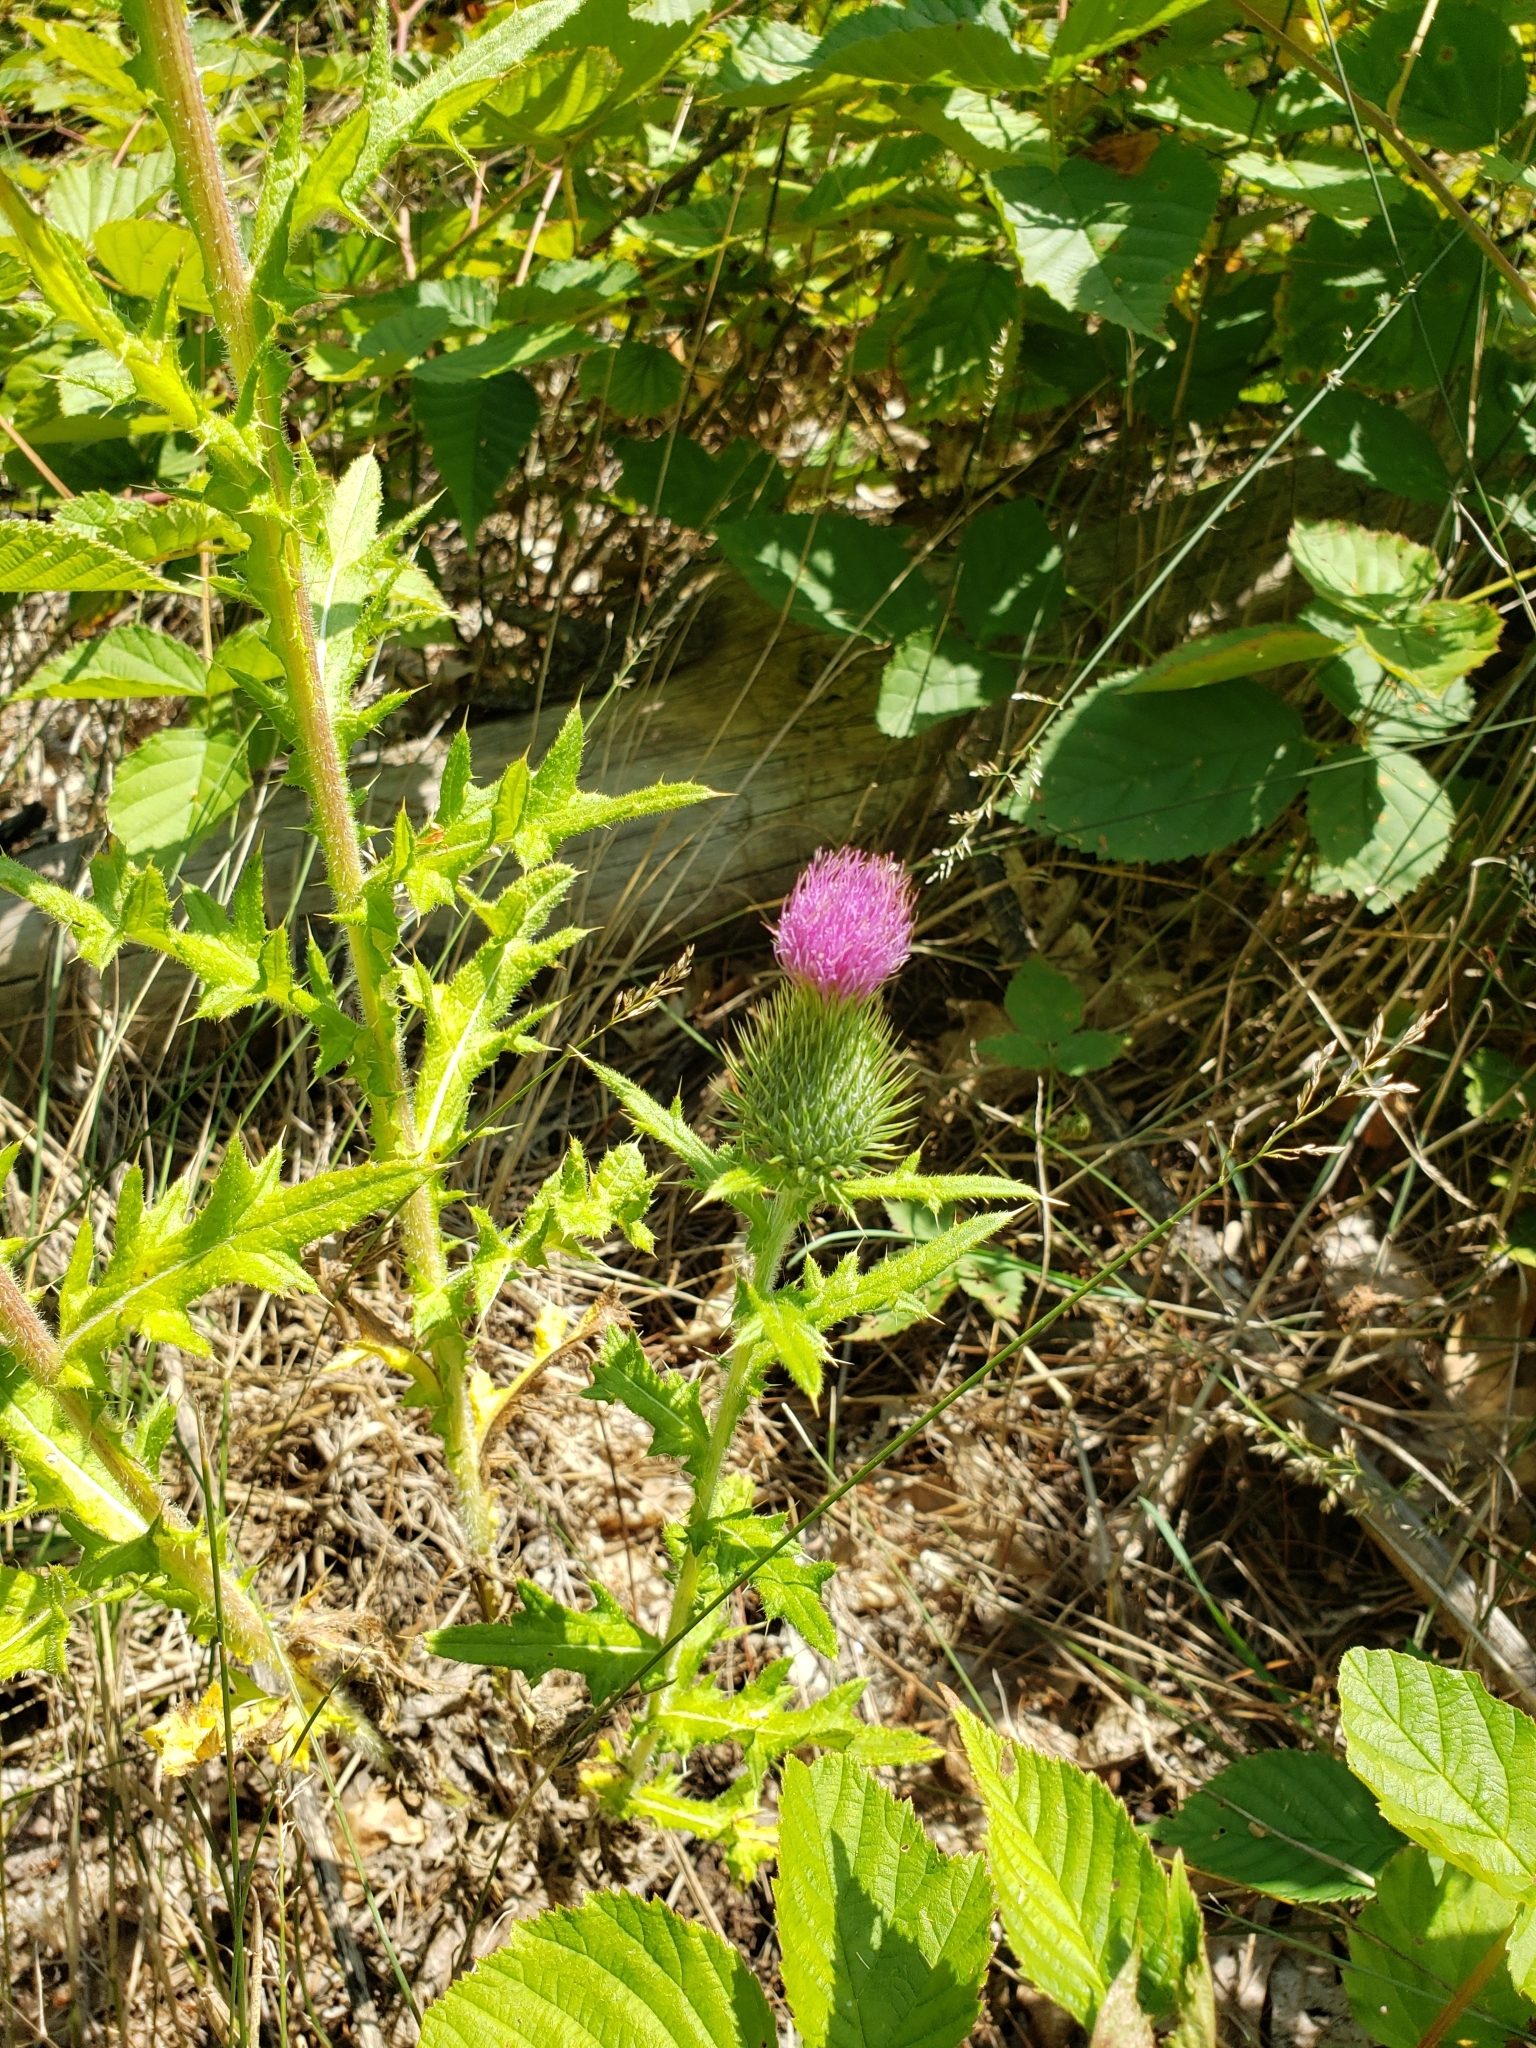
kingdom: Plantae
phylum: Tracheophyta
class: Magnoliopsida
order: Asterales
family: Asteraceae
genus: Cirsium
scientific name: Cirsium vulgare
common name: Bull thistle
